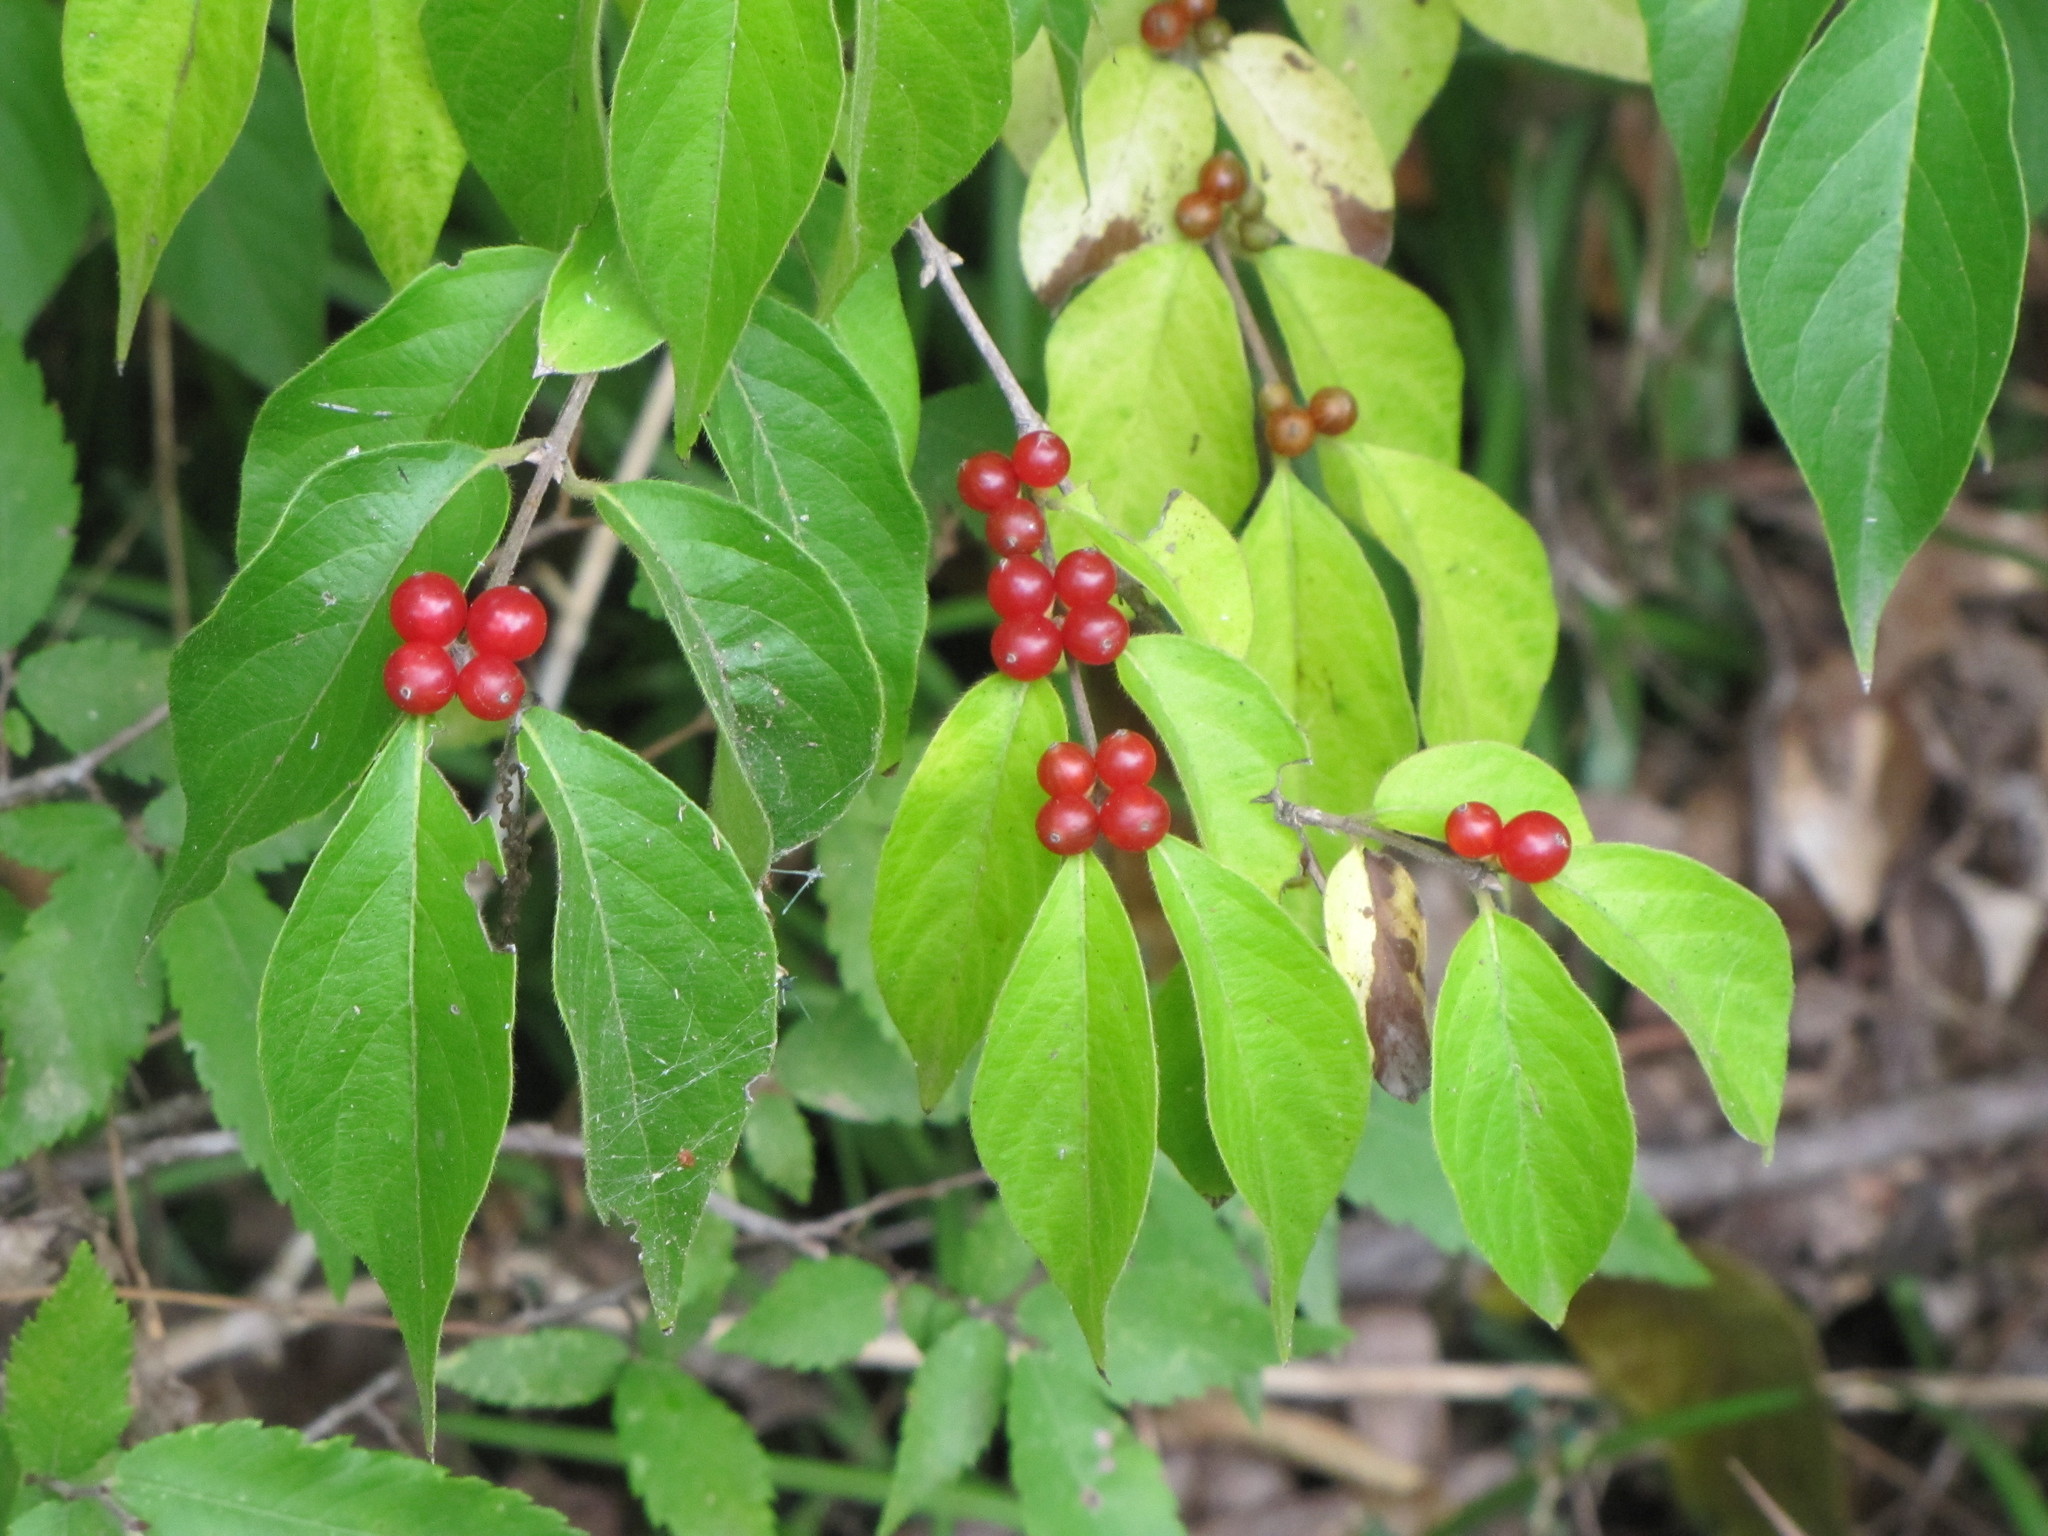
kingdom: Plantae
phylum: Tracheophyta
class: Magnoliopsida
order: Dipsacales
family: Caprifoliaceae
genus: Lonicera
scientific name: Lonicera maackii
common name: Amur honeysuckle
